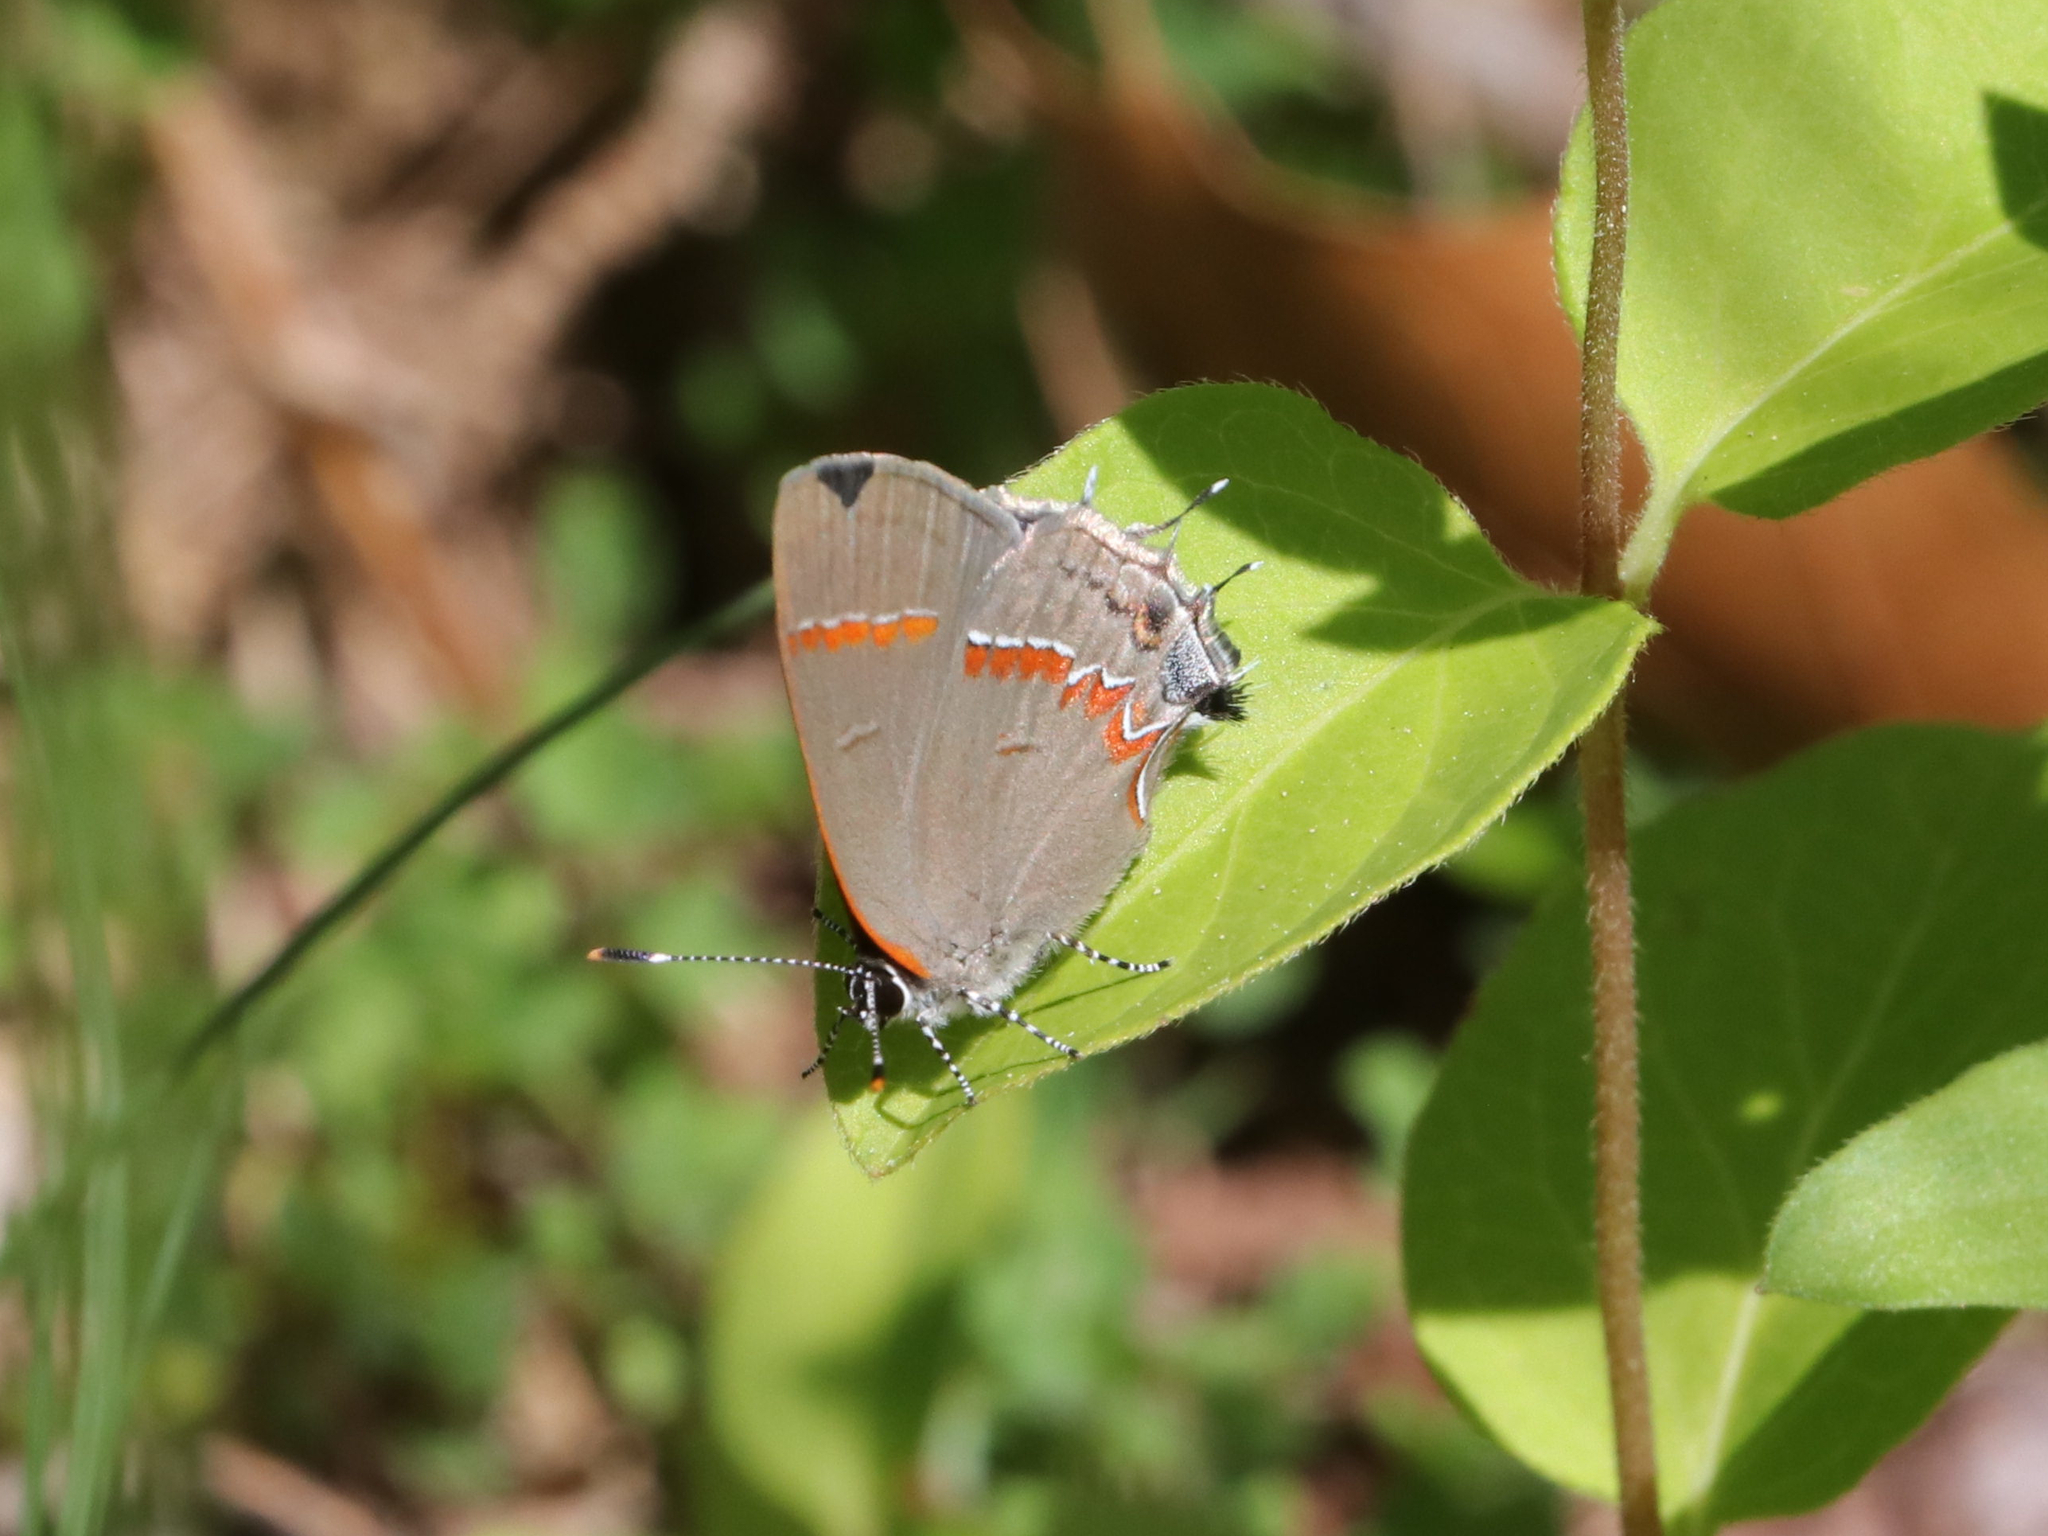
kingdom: Animalia
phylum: Arthropoda
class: Insecta
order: Lepidoptera
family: Lycaenidae
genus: Calycopis
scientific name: Calycopis cecrops
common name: Red-banded hairstreak
